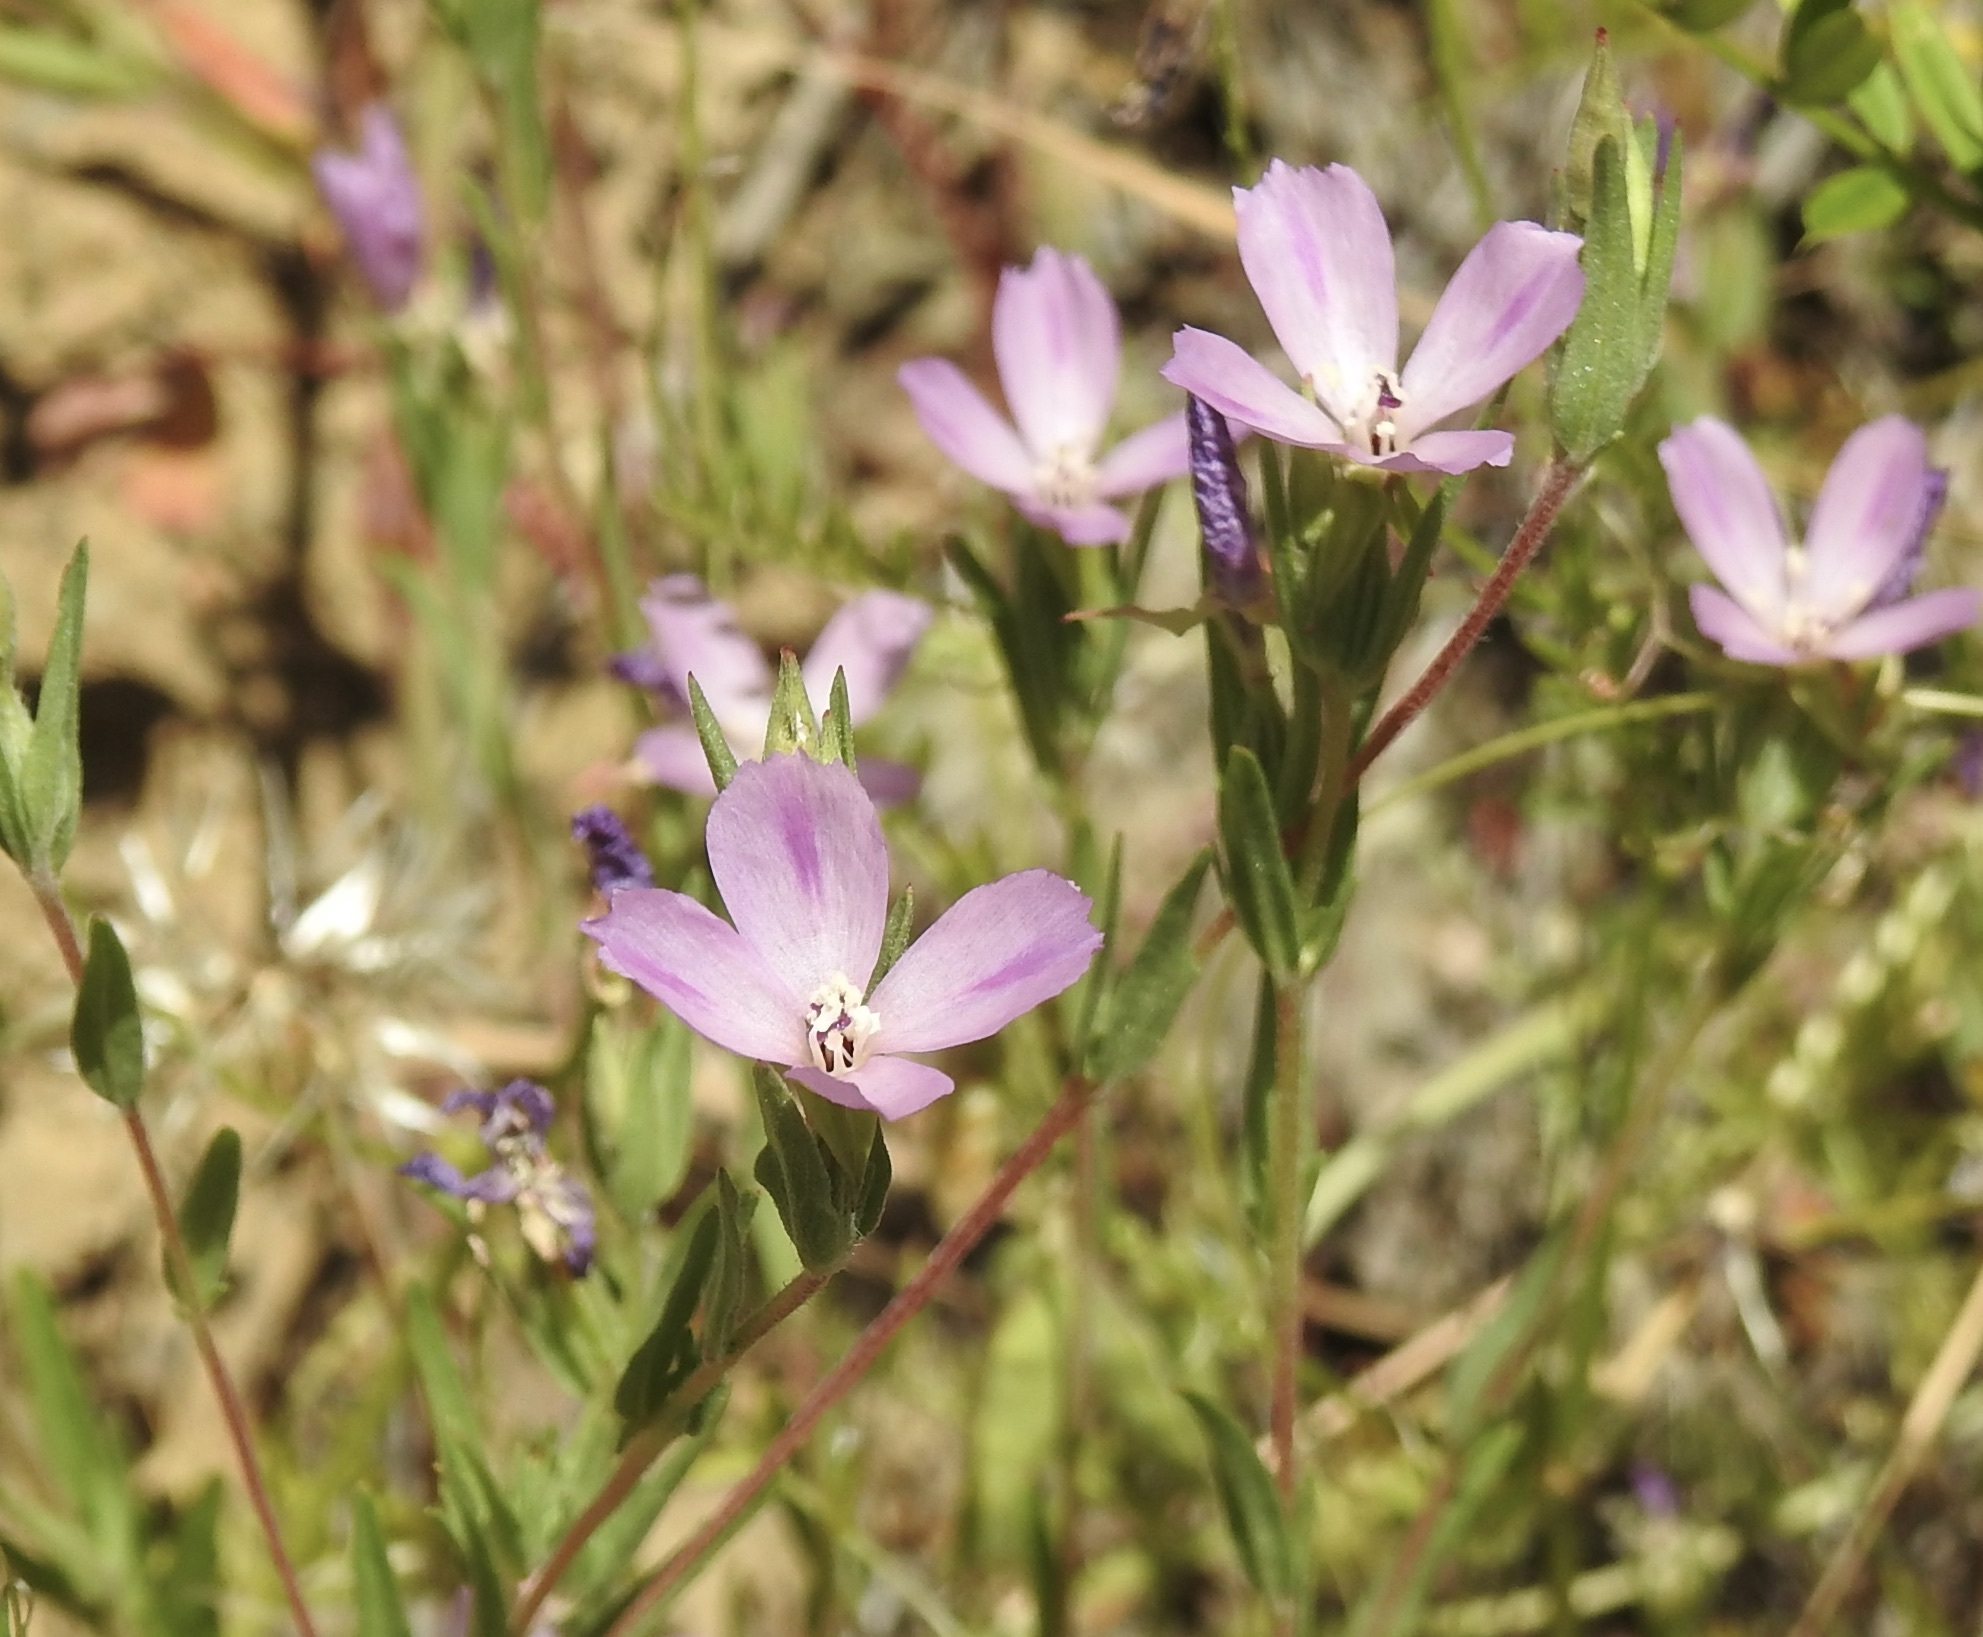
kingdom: Plantae
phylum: Tracheophyta
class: Magnoliopsida
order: Myrtales
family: Onagraceae
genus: Clarkia
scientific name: Clarkia purpurea
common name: Purple clarkia
